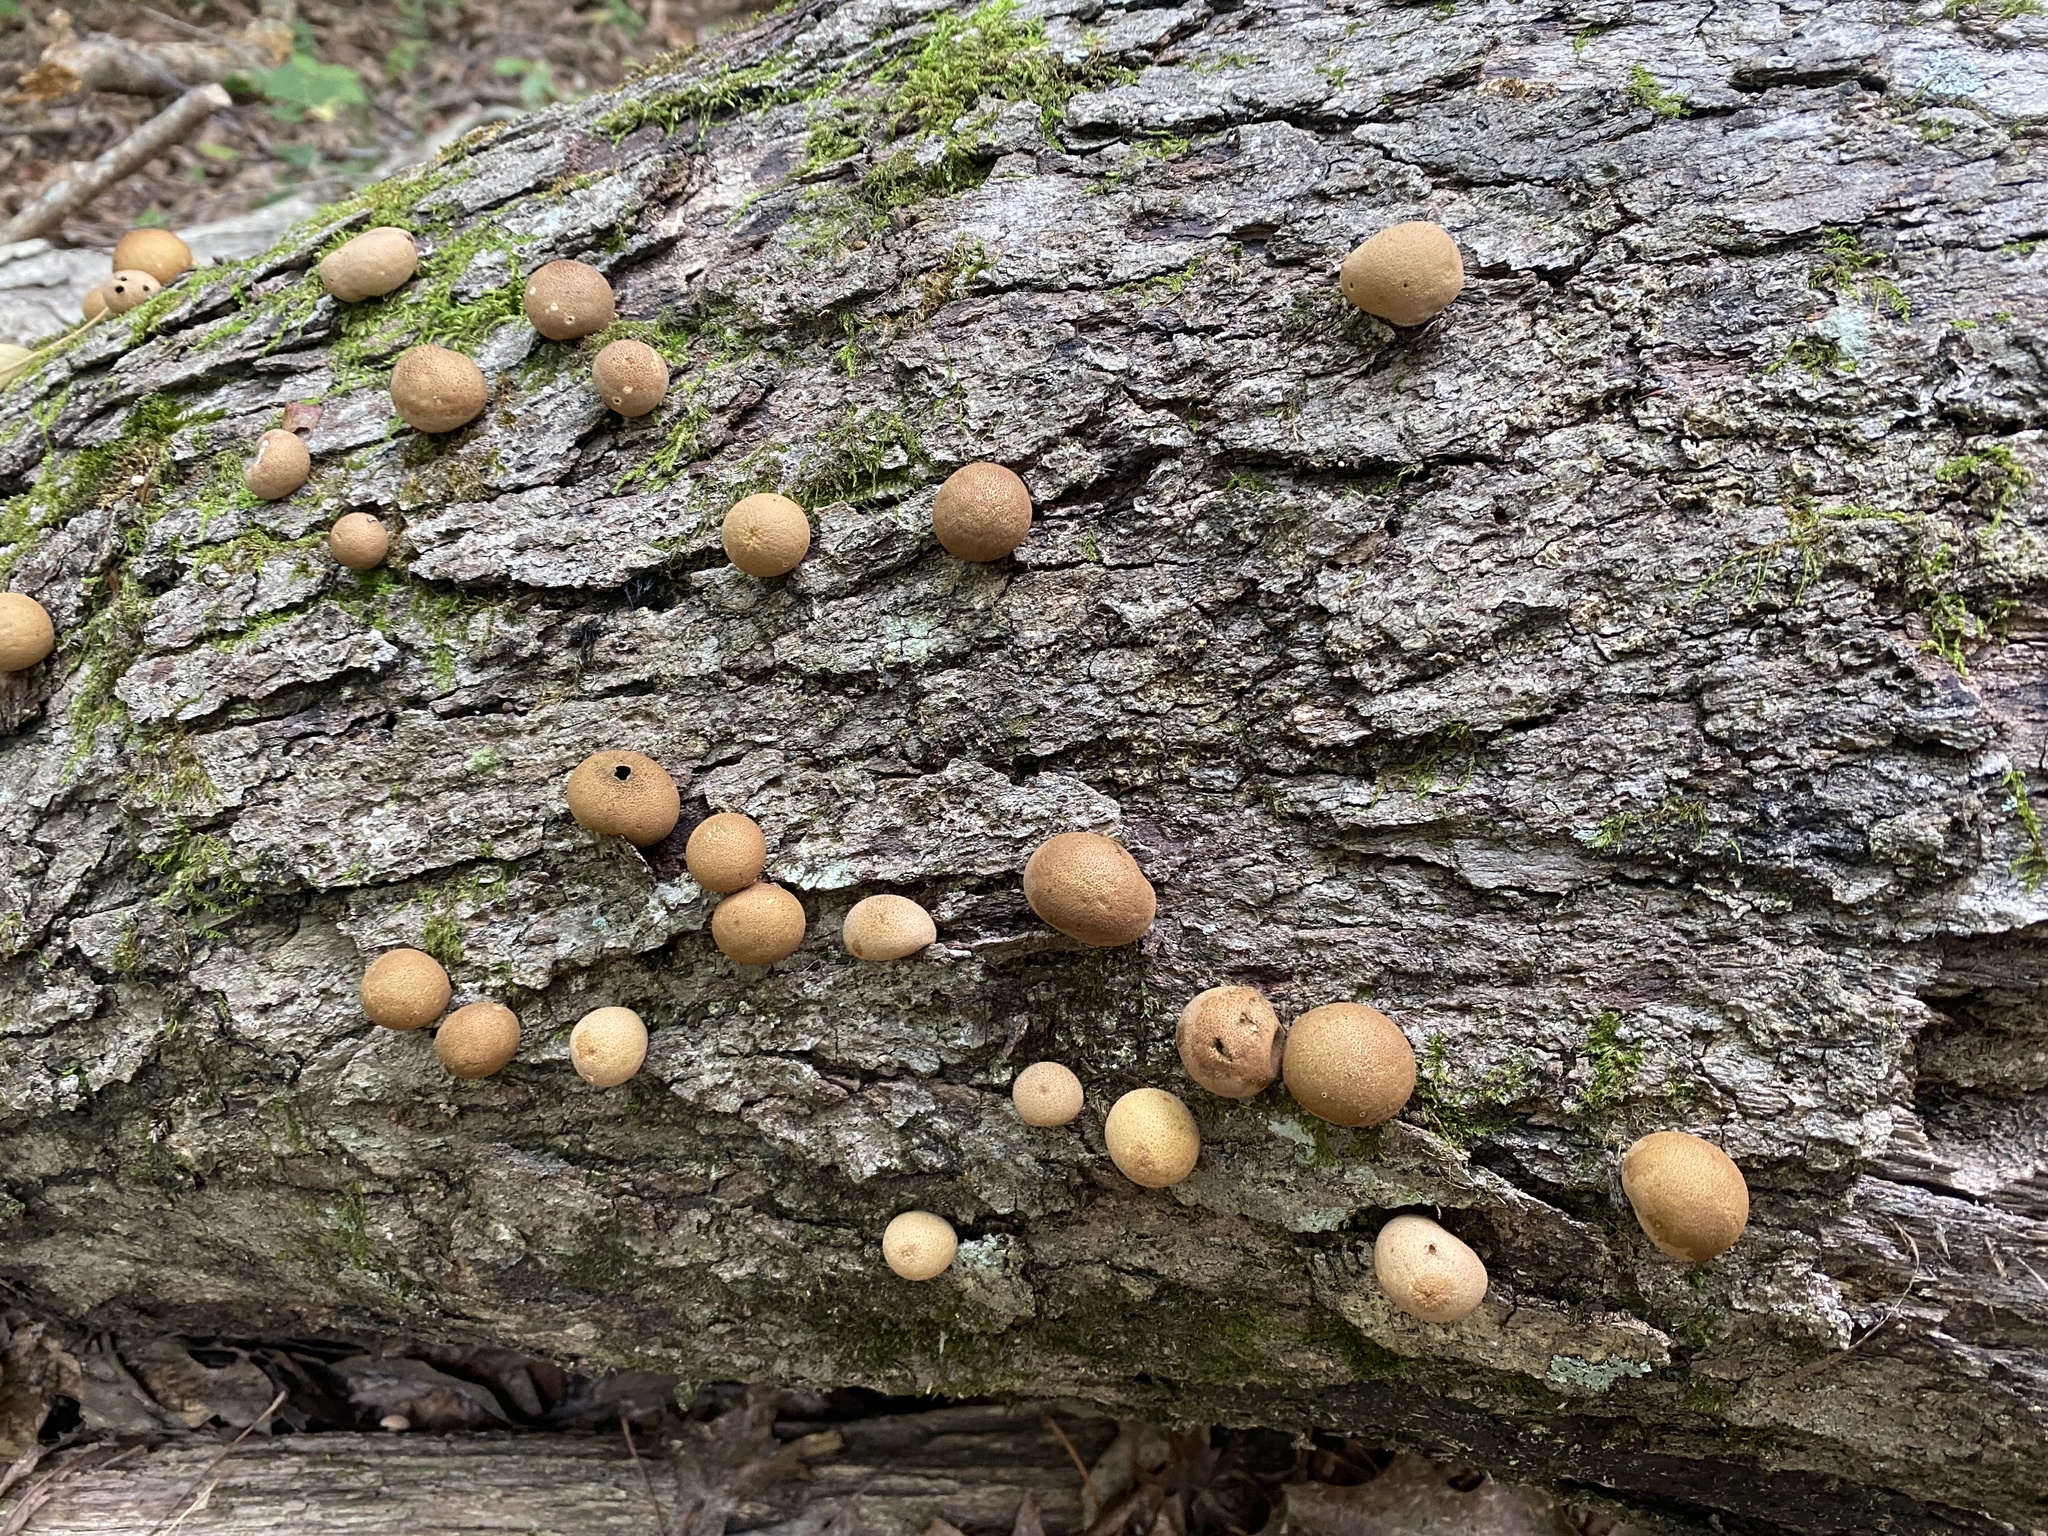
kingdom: Fungi
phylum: Basidiomycota
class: Agaricomycetes
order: Agaricales
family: Lycoperdaceae
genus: Apioperdon
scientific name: Apioperdon pyriforme
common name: Pear-shaped puffball
